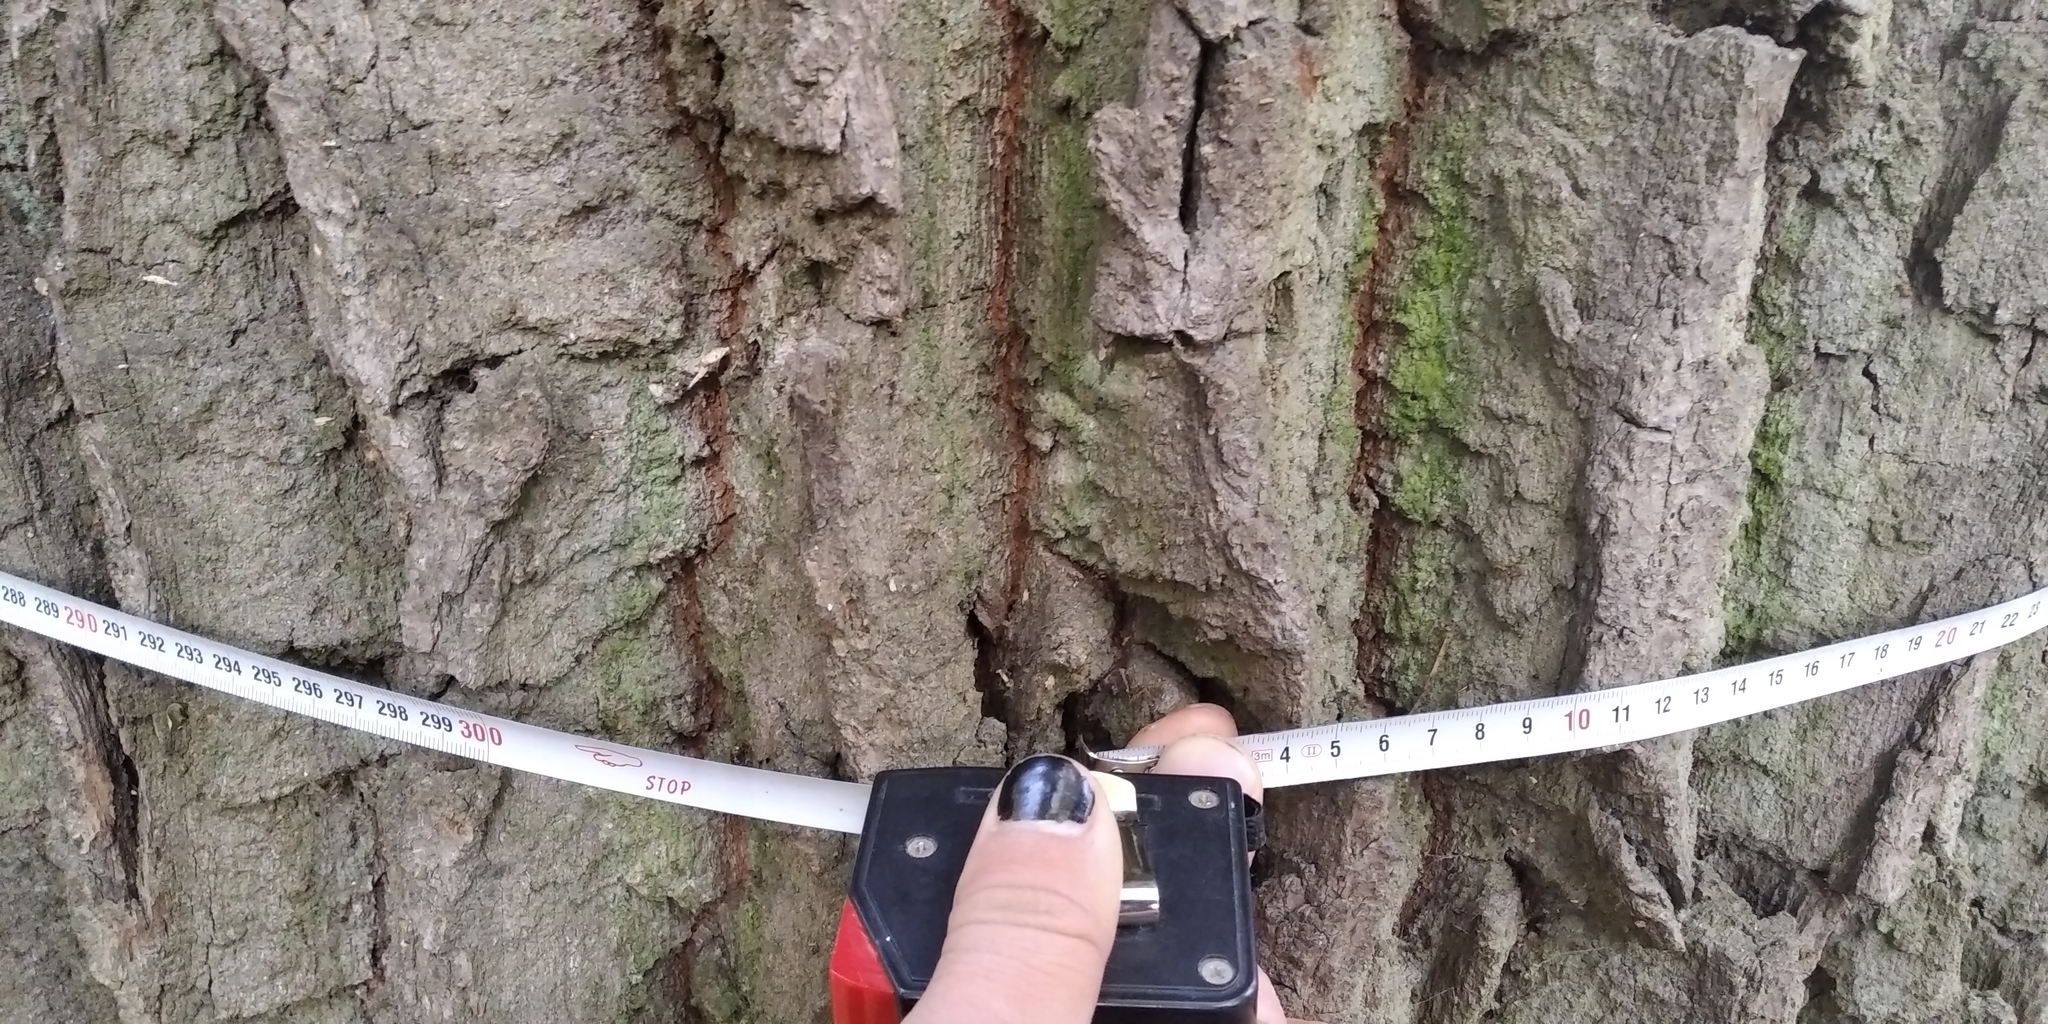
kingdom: Plantae
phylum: Tracheophyta
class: Magnoliopsida
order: Fagales
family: Fagaceae
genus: Quercus
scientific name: Quercus robur
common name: Pedunculate oak
